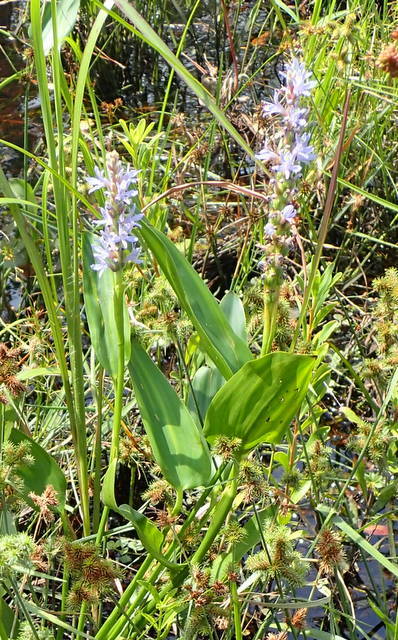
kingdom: Plantae
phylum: Tracheophyta
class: Liliopsida
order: Commelinales
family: Pontederiaceae
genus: Pontederia
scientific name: Pontederia cordata
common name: Pickerelweed
